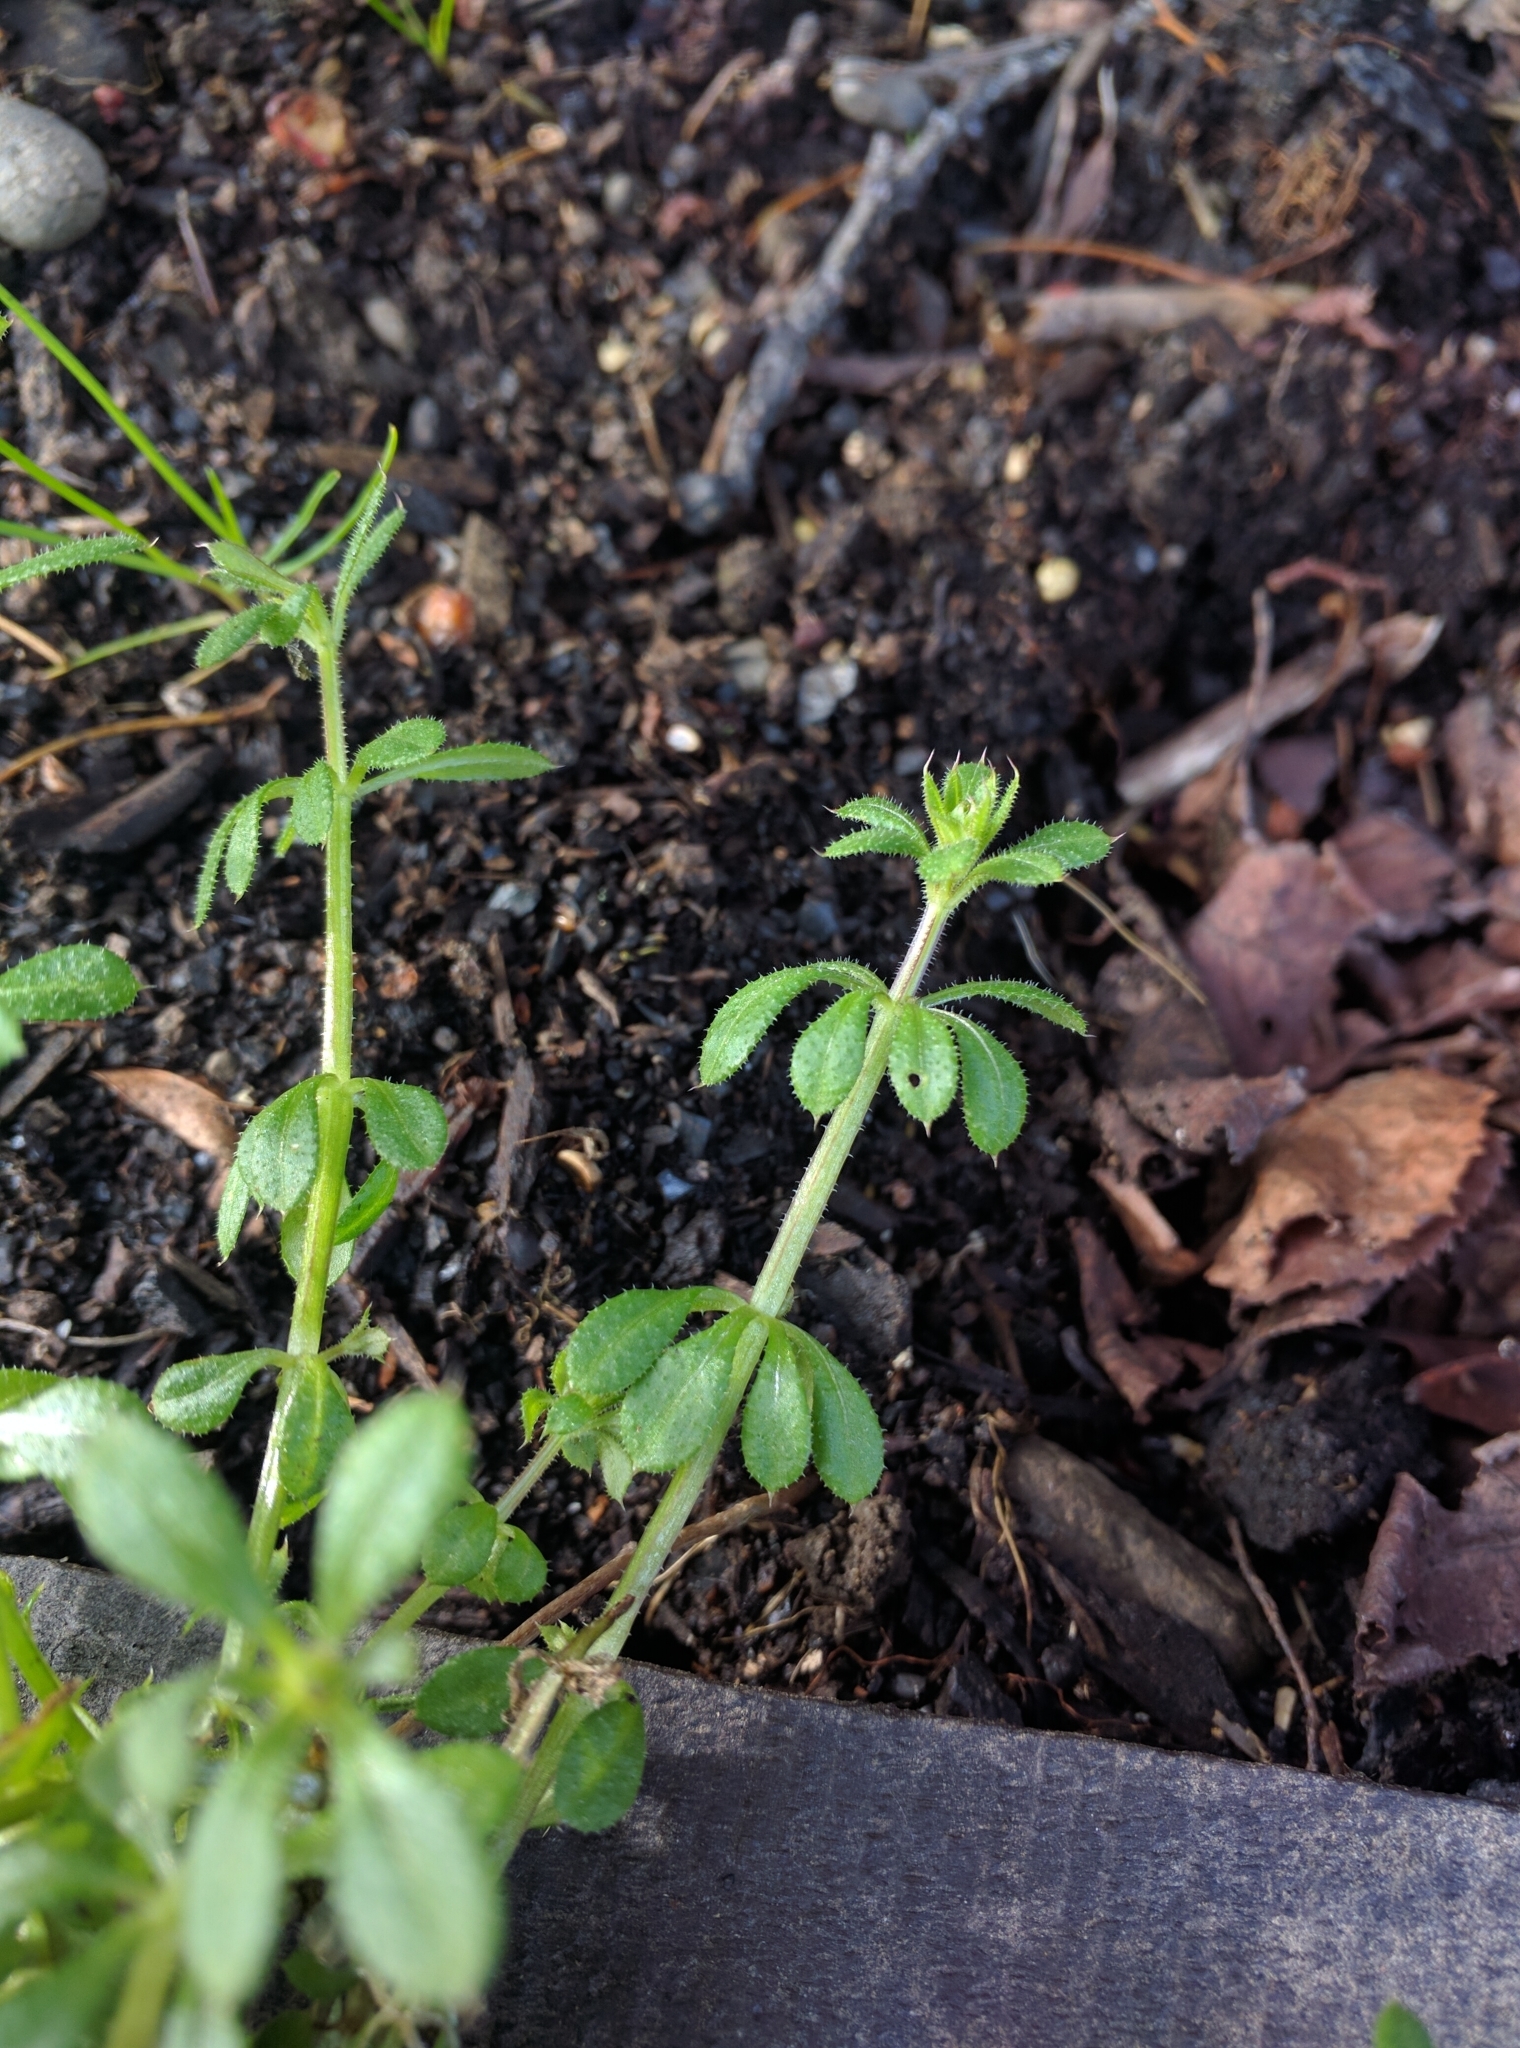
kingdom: Plantae
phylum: Tracheophyta
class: Magnoliopsida
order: Gentianales
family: Rubiaceae
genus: Galium
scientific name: Galium aparine
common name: Cleavers
